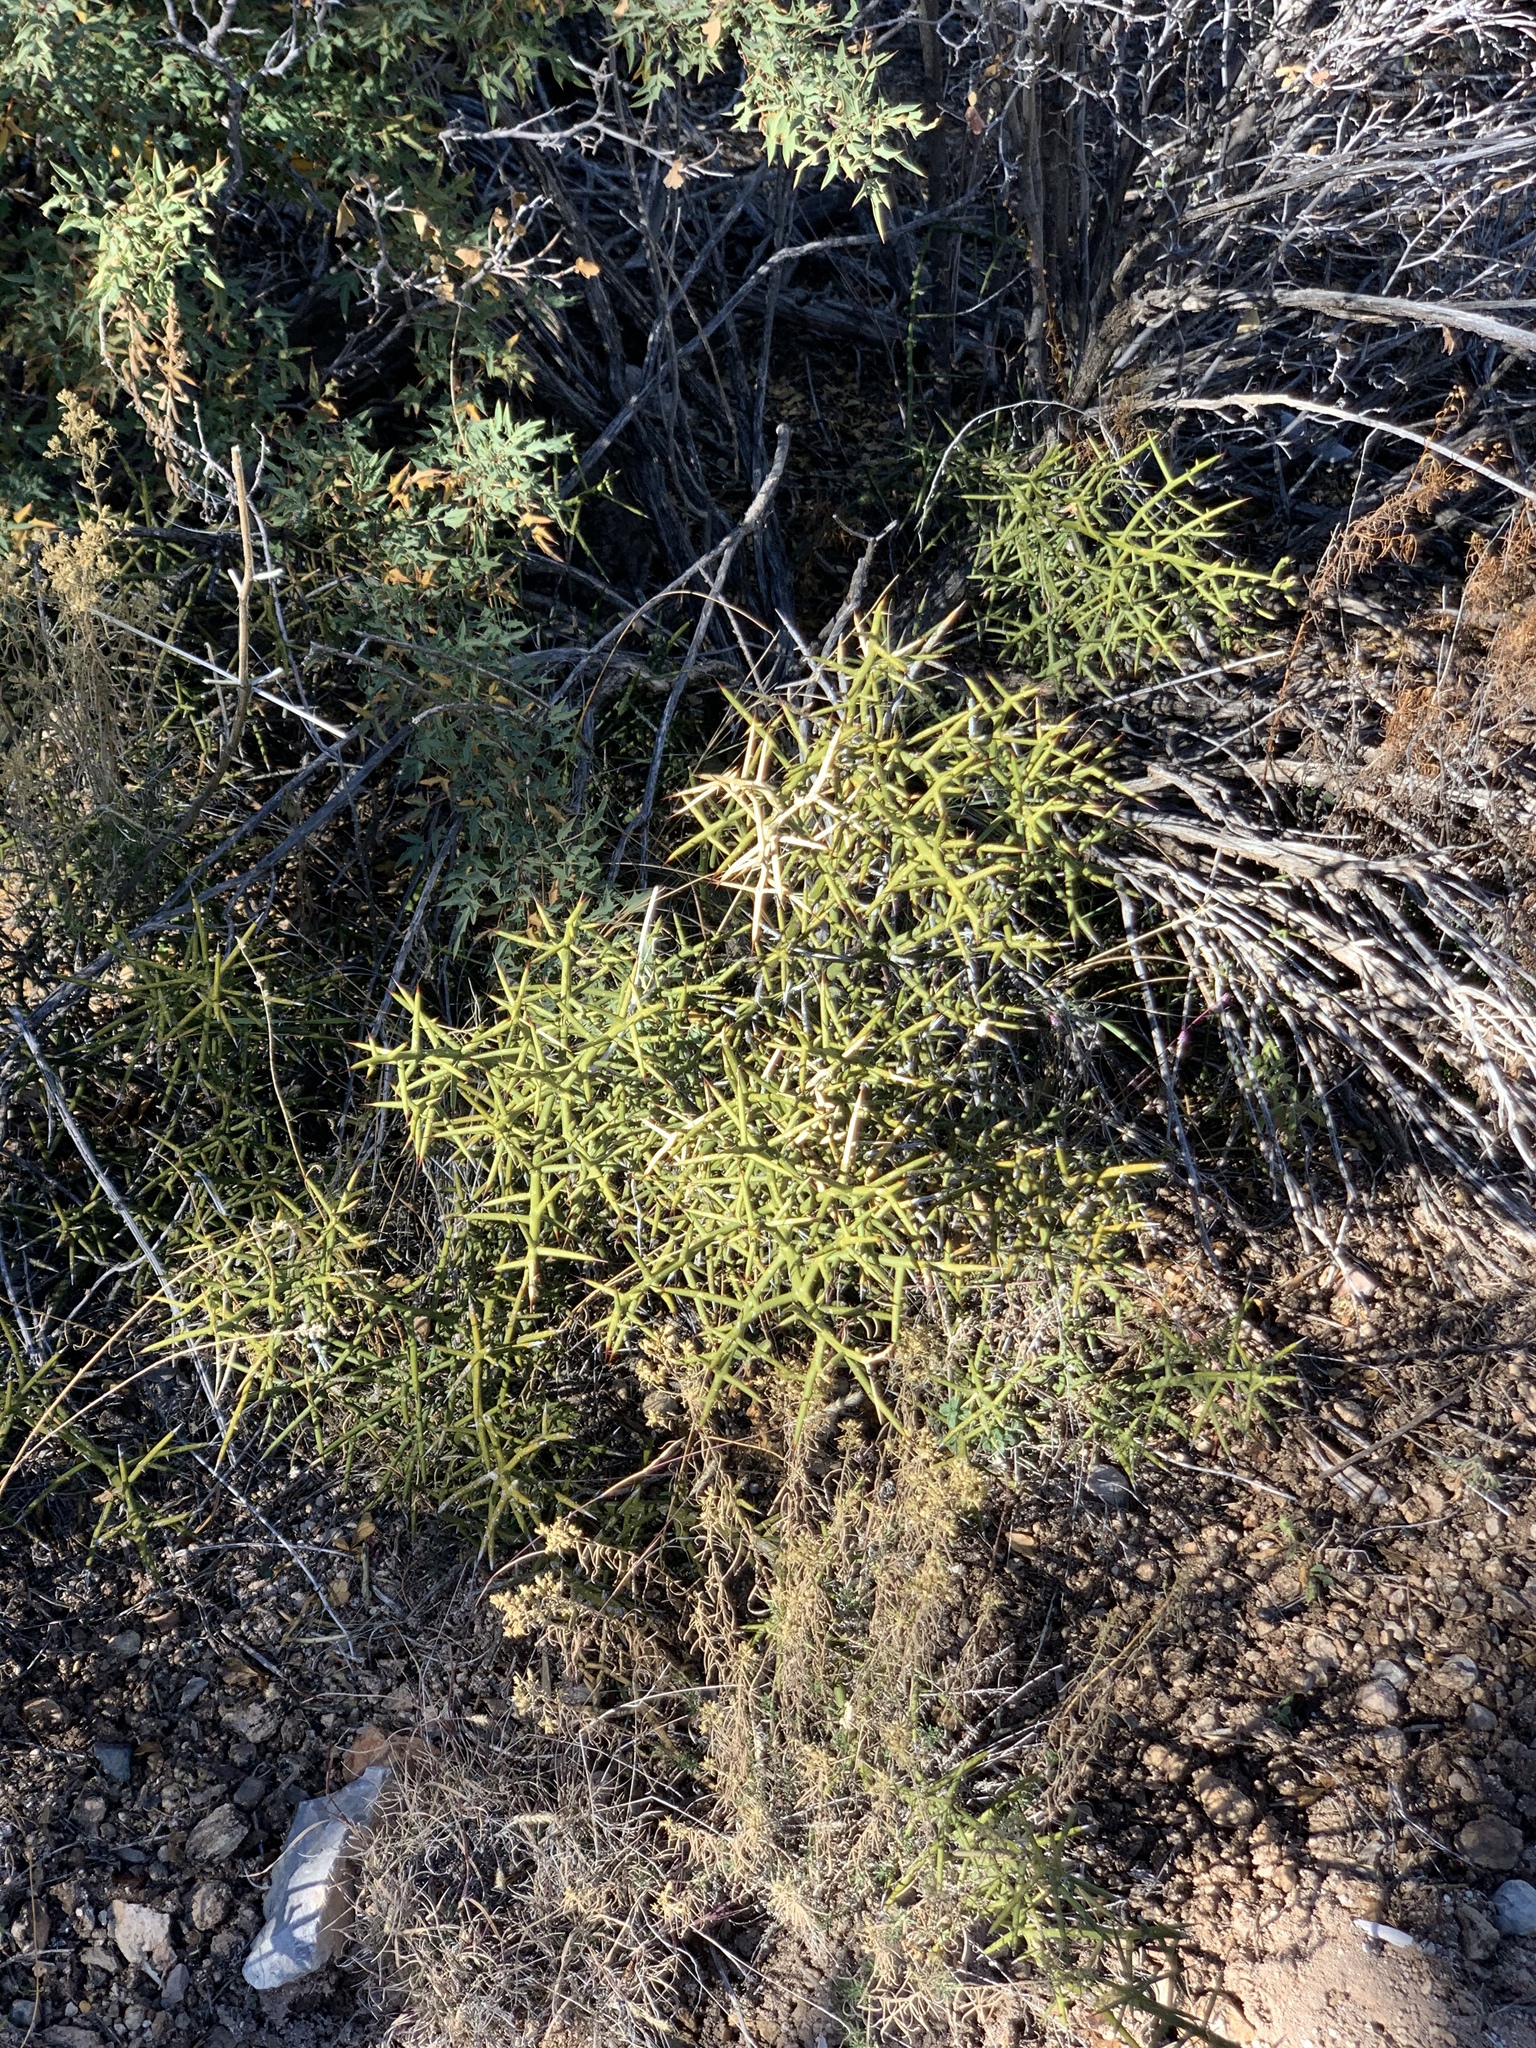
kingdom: Plantae
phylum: Tracheophyta
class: Magnoliopsida
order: Brassicales
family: Koeberliniaceae
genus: Koeberlinia
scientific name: Koeberlinia spinosa
